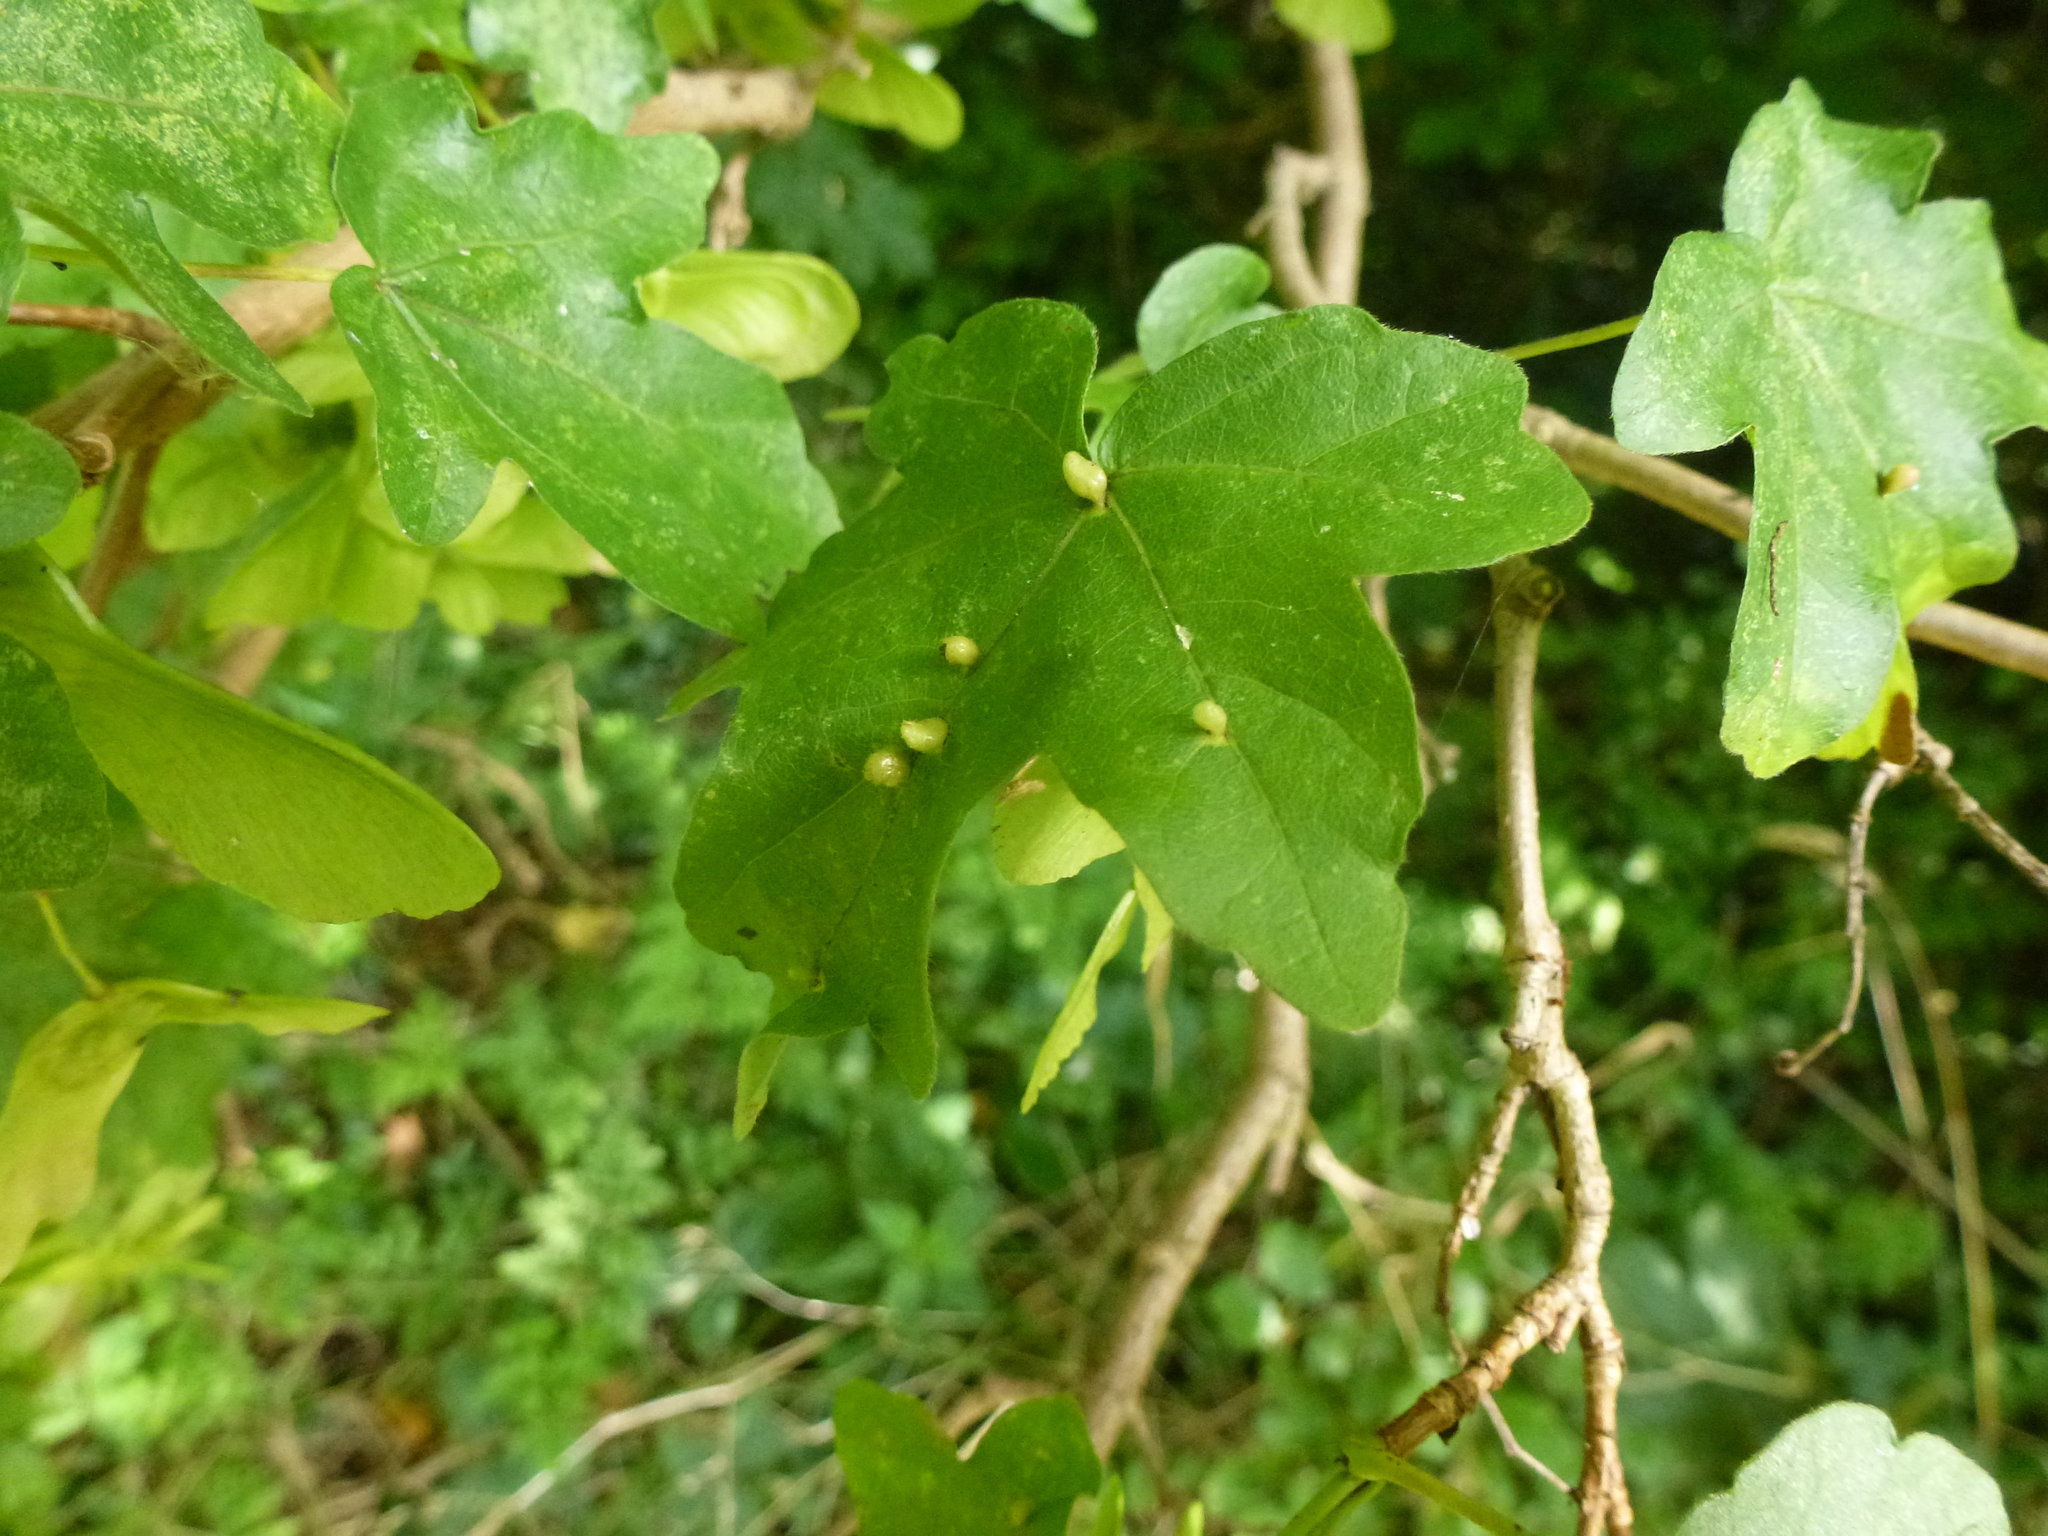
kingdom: Animalia
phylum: Arthropoda
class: Arachnida
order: Trombidiformes
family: Eriophyidae
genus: Aceria
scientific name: Aceria macrochelus
